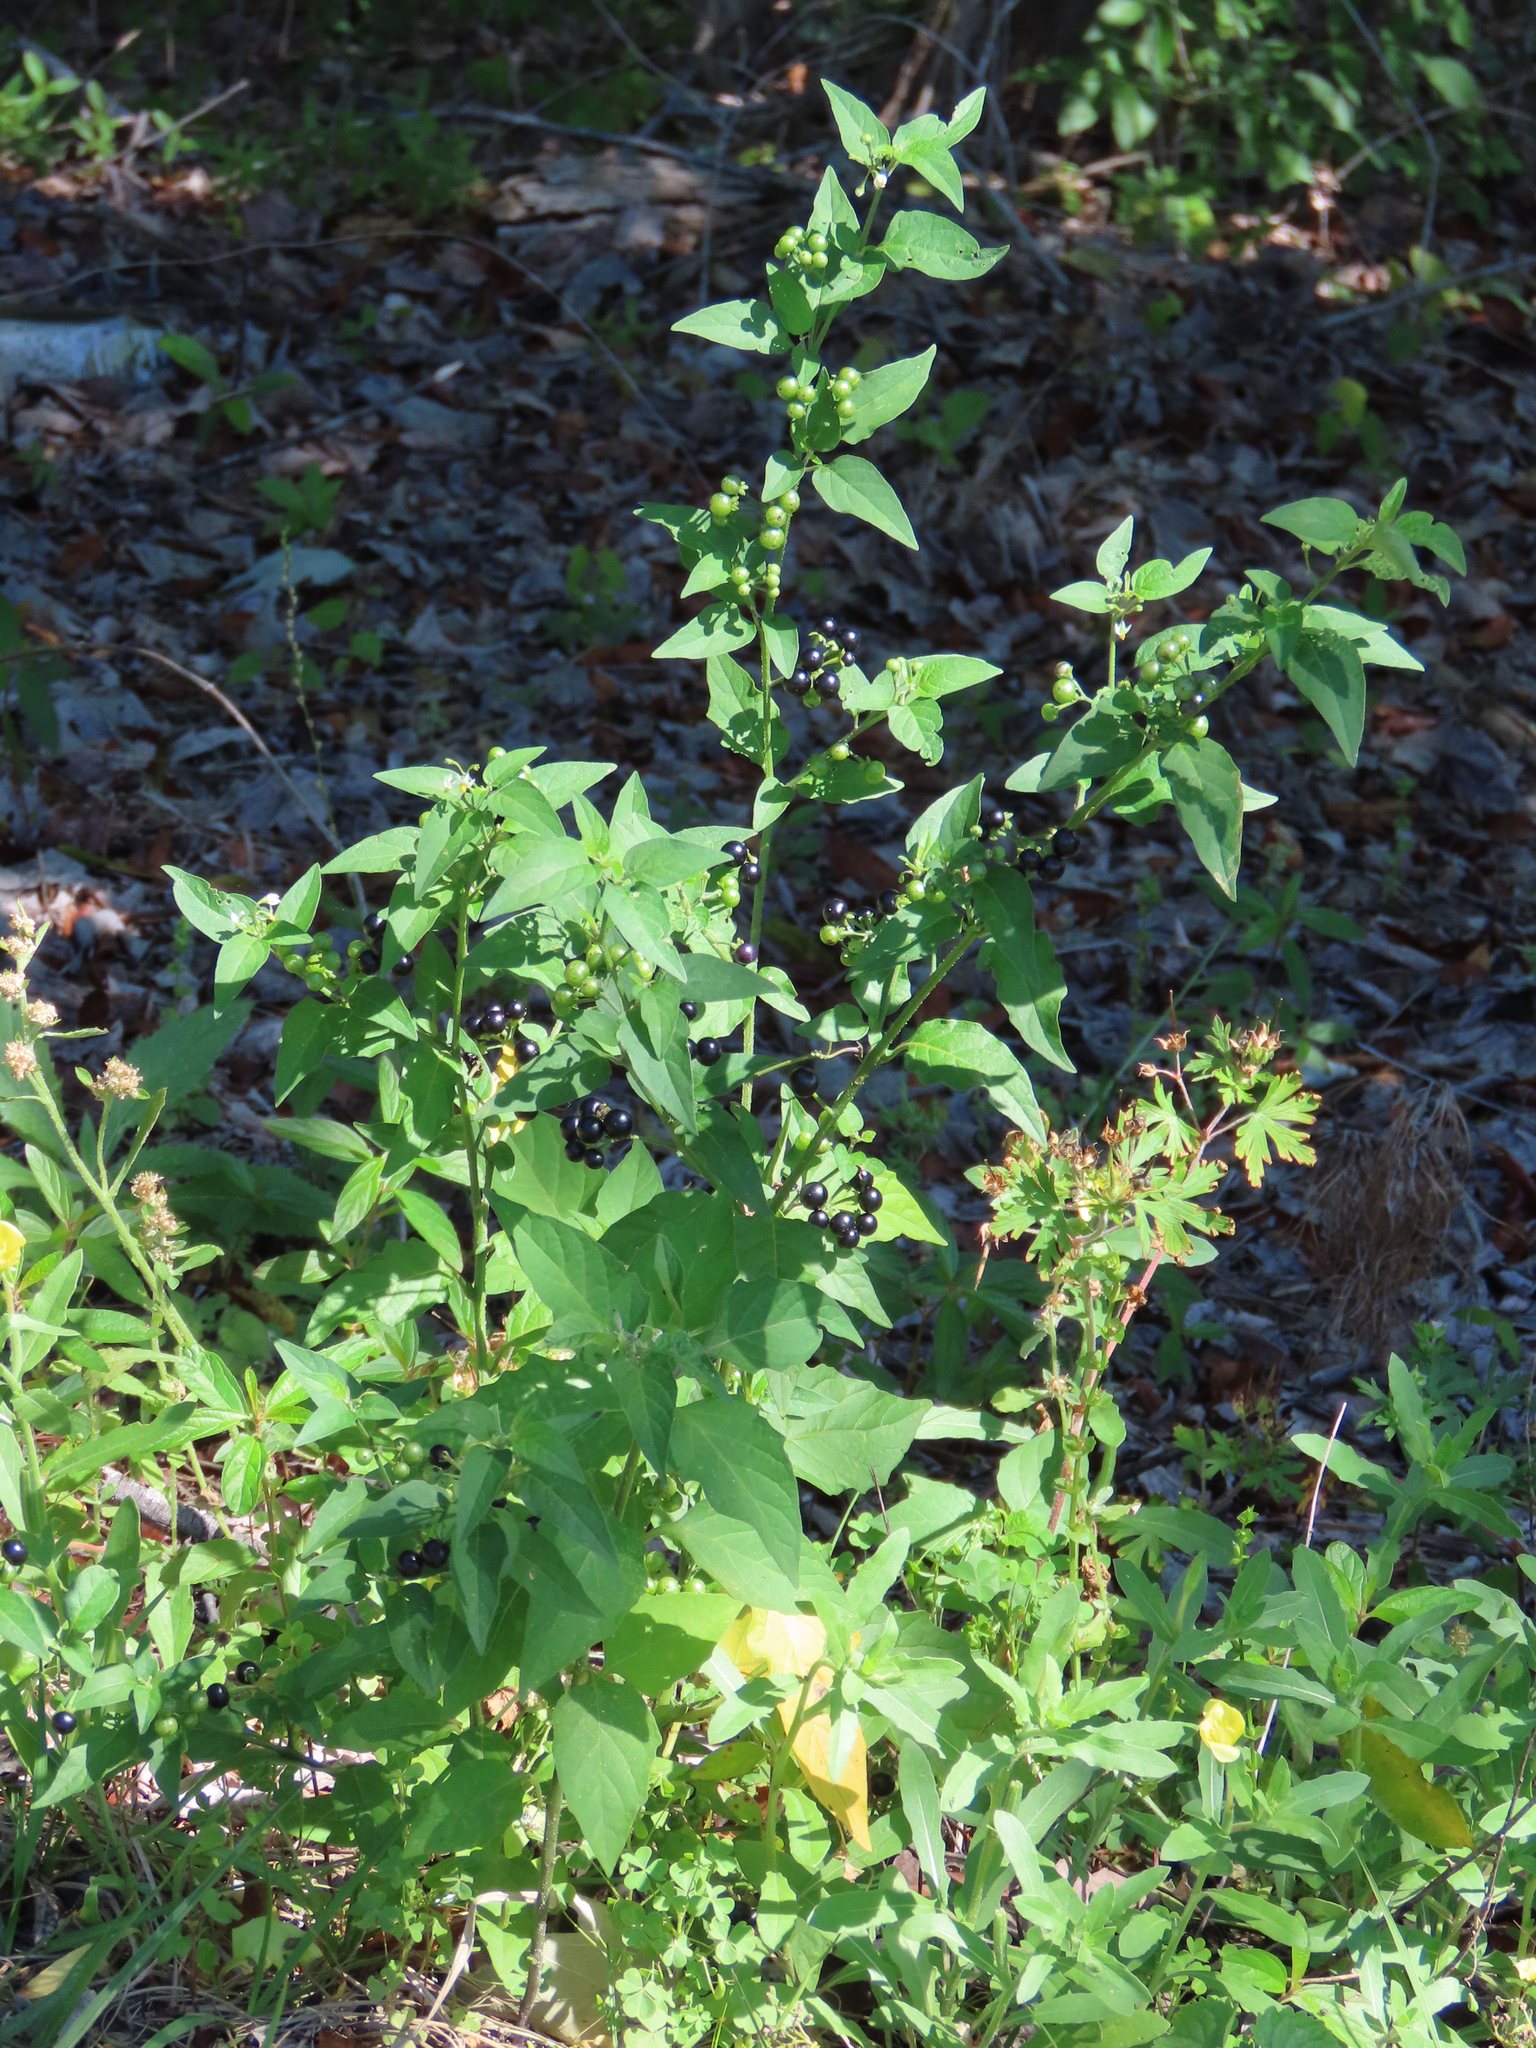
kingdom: Plantae
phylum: Tracheophyta
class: Magnoliopsida
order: Solanales
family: Solanaceae
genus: Solanum
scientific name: Solanum americanum
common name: American black nightshade
